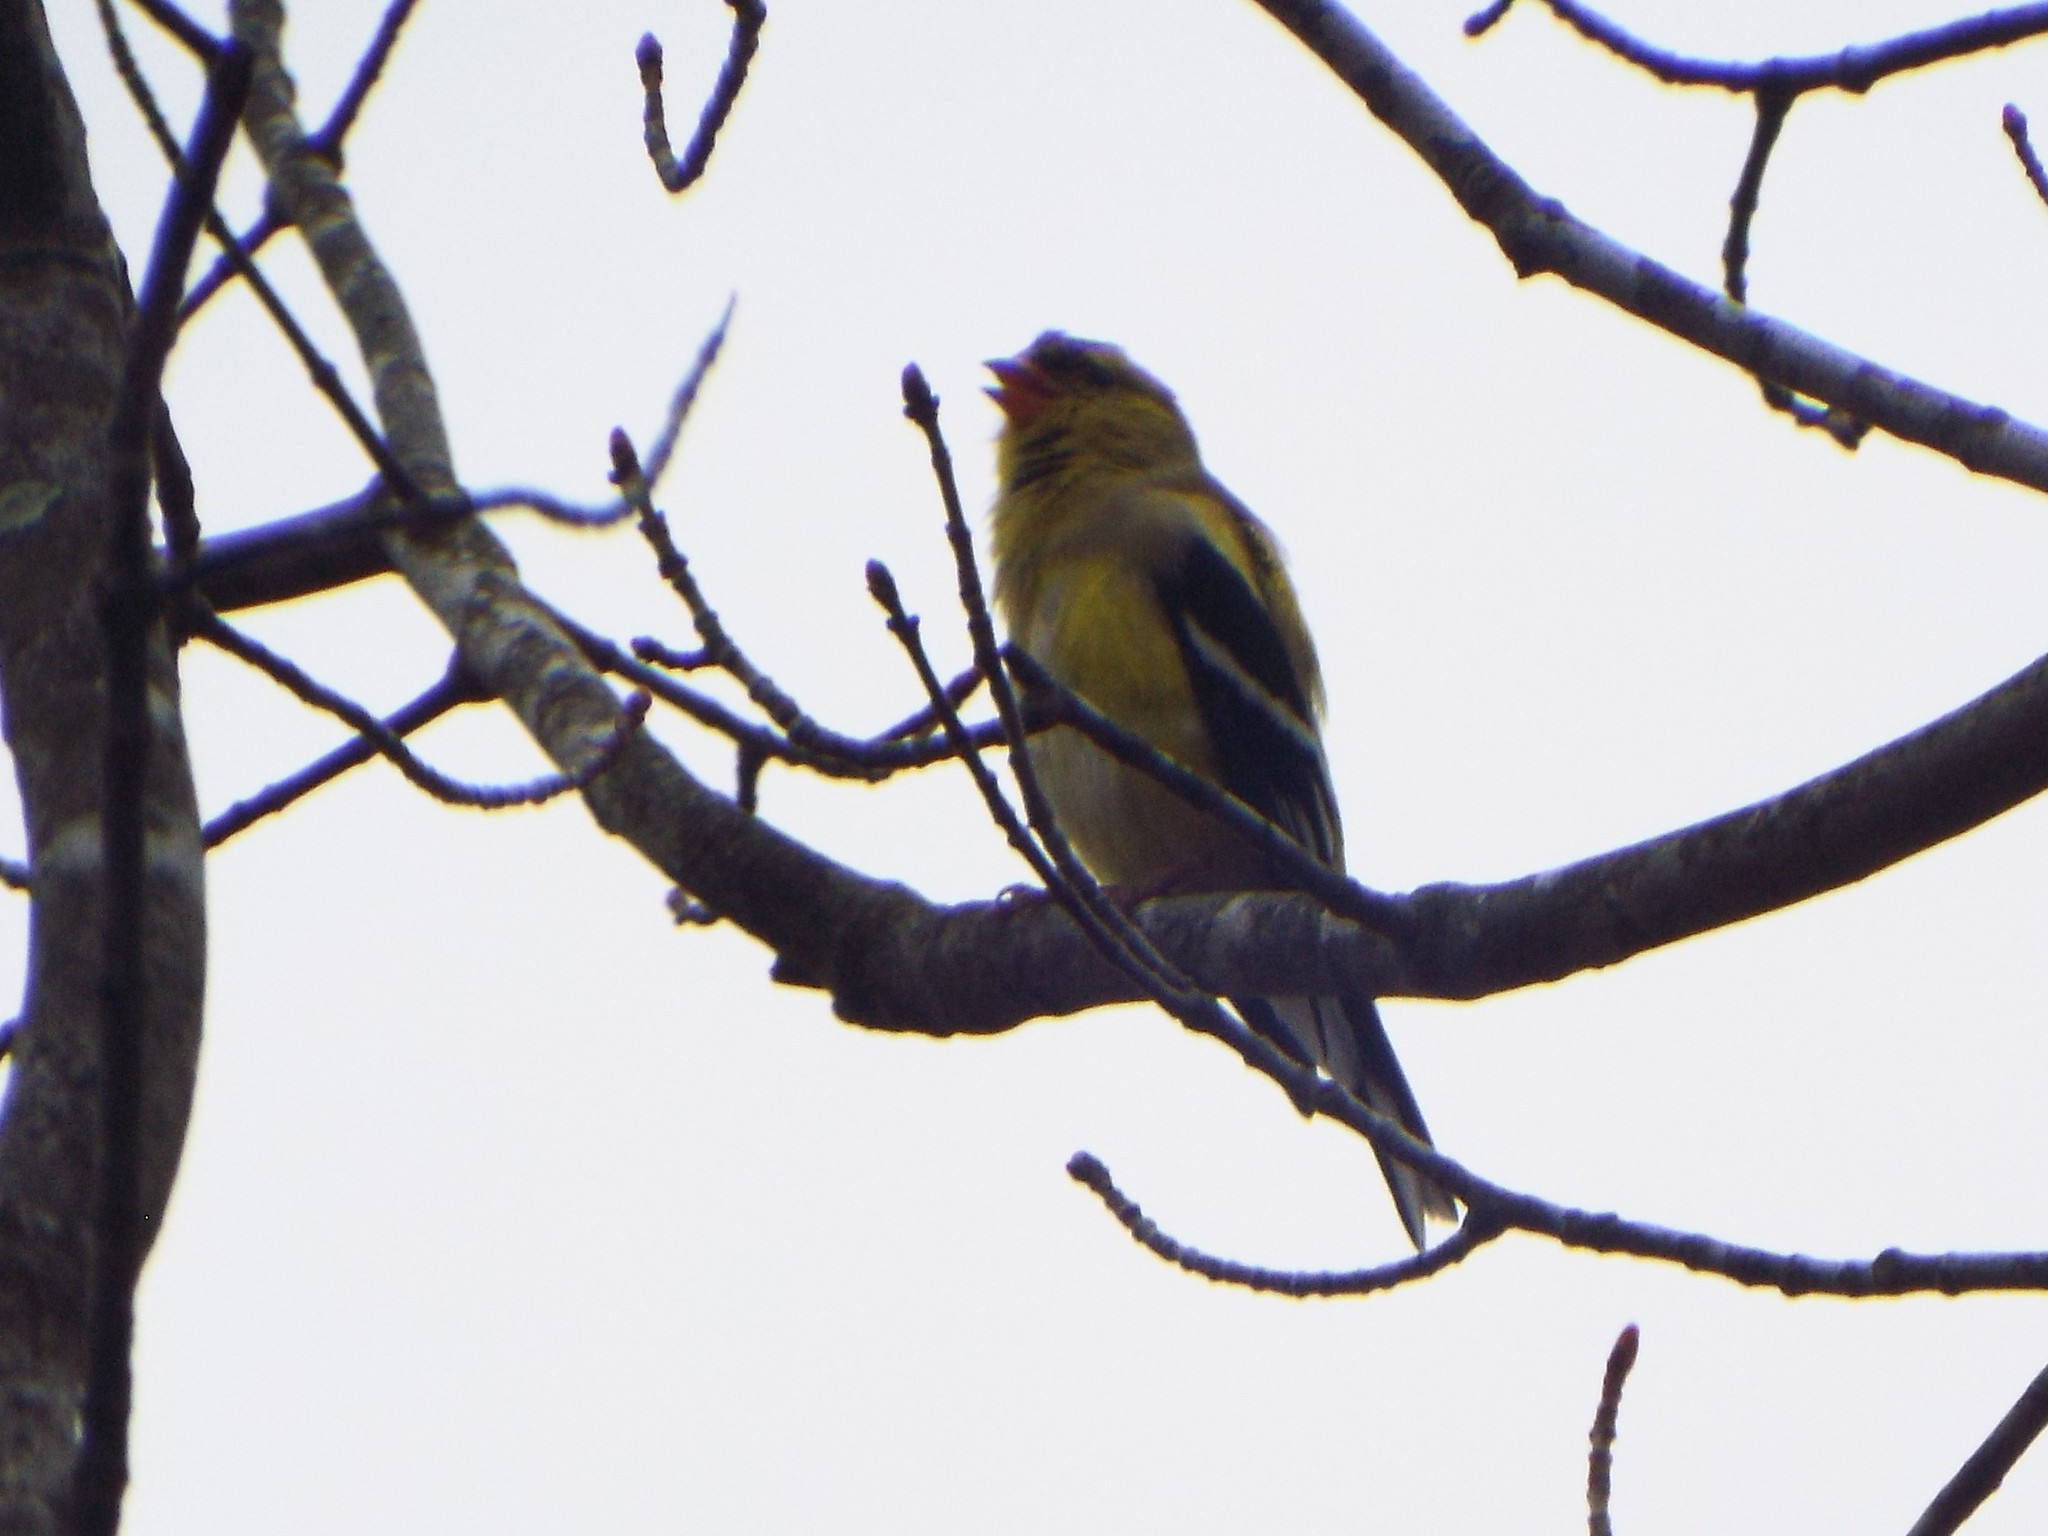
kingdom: Animalia
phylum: Chordata
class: Aves
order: Passeriformes
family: Fringillidae
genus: Spinus
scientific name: Spinus tristis
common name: American goldfinch
